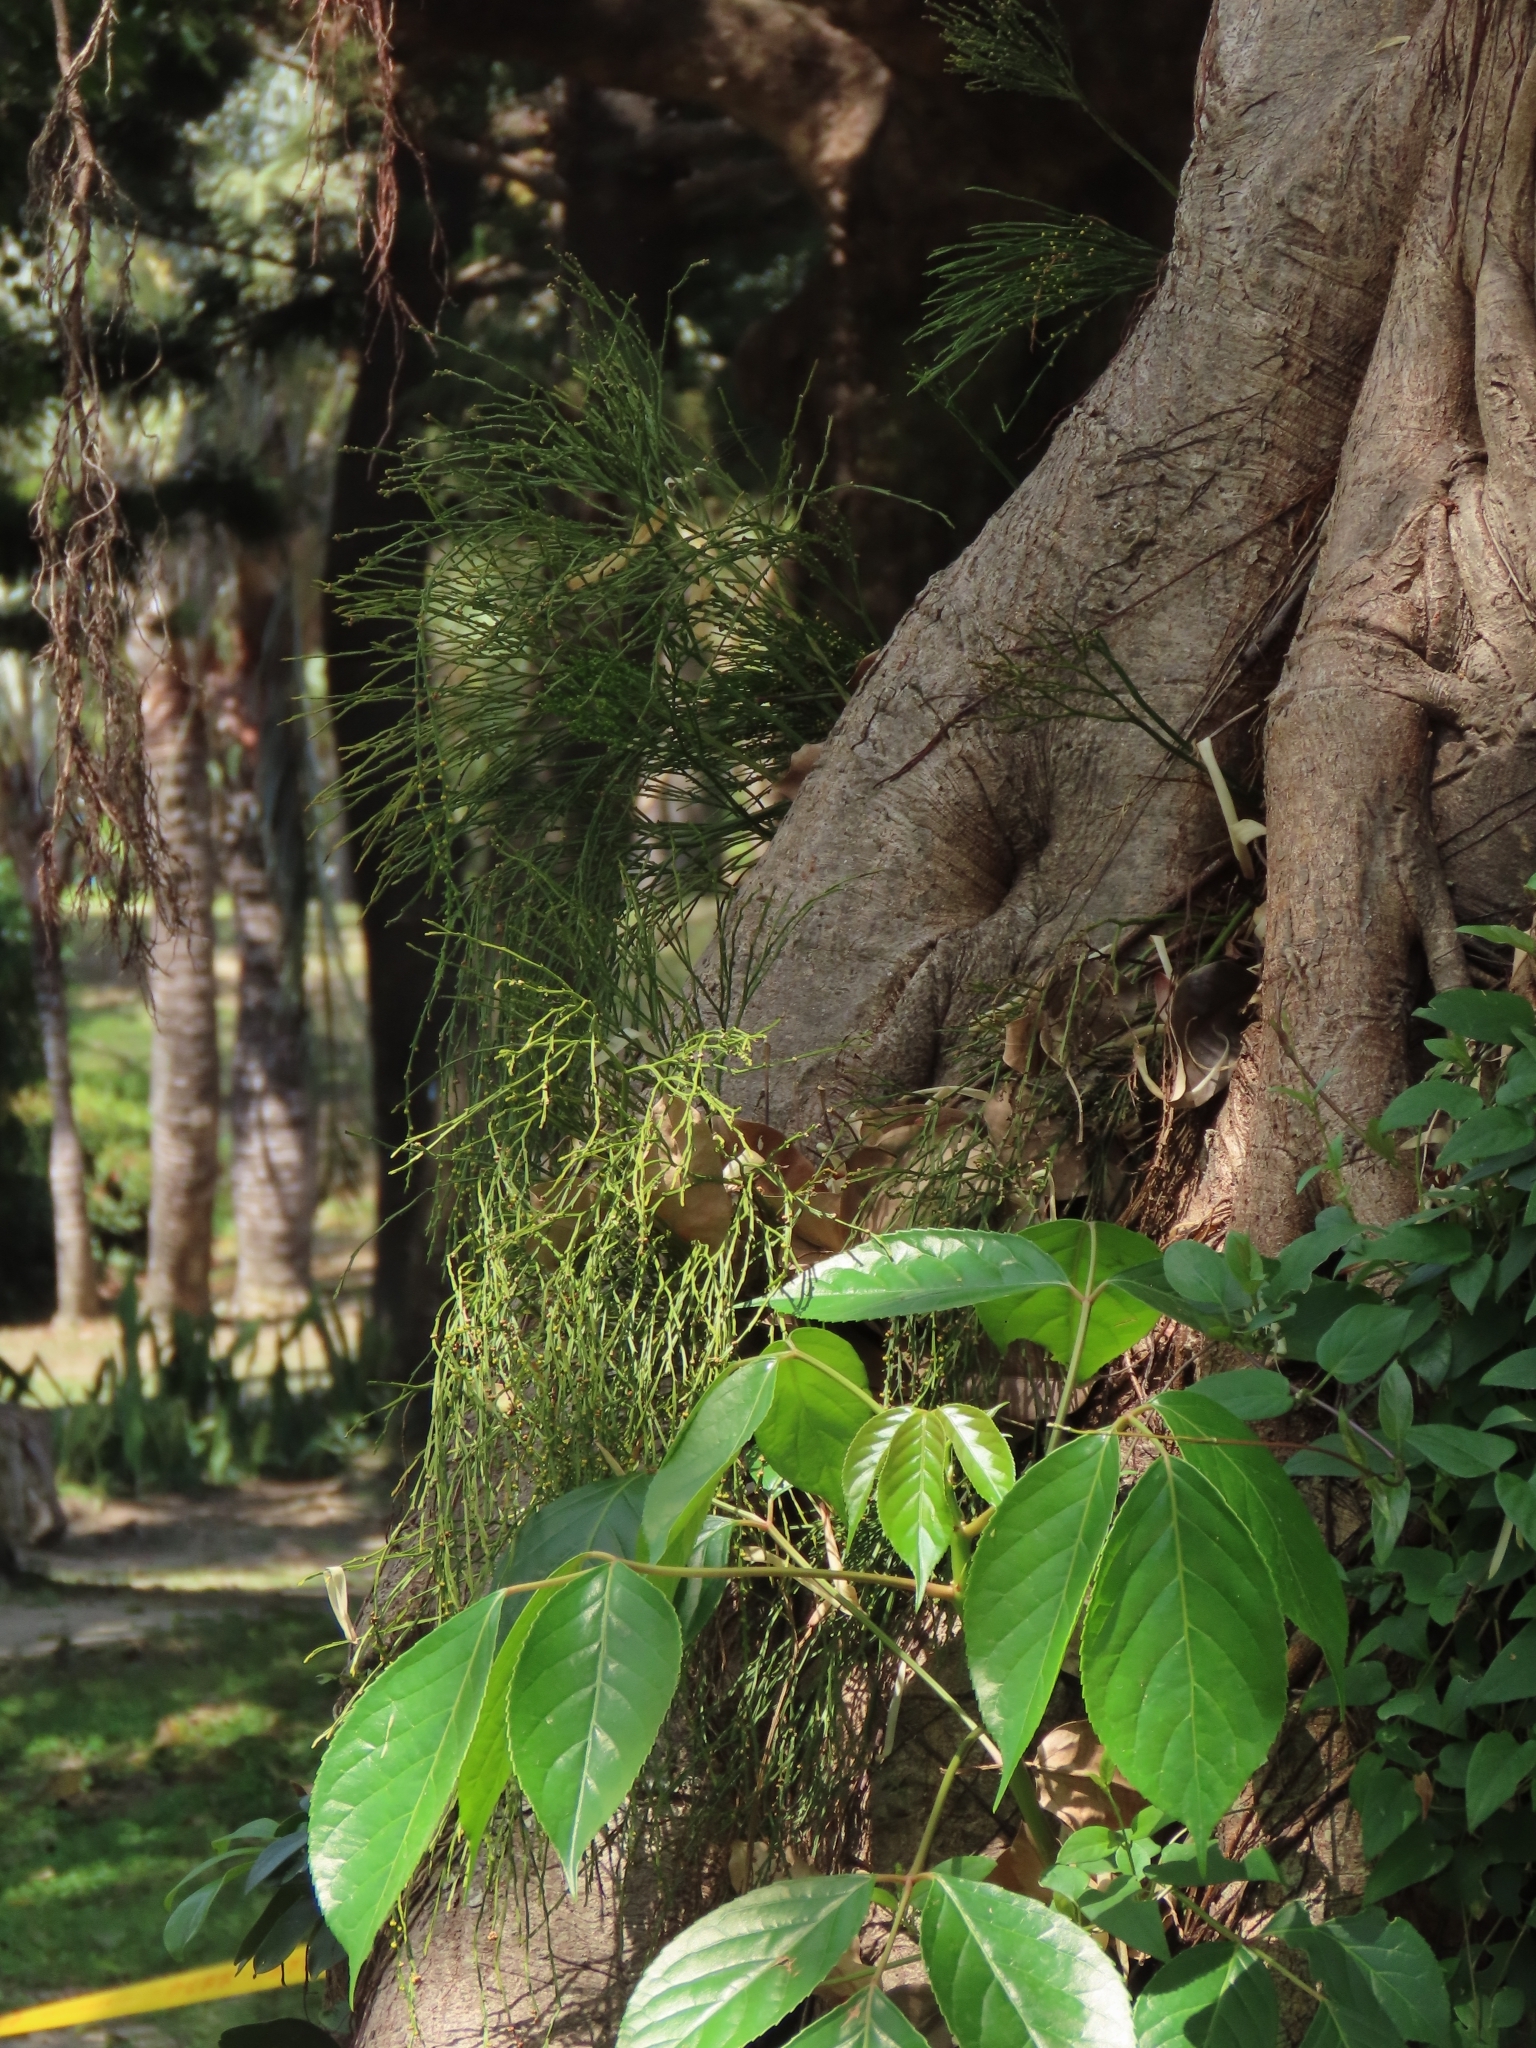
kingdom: Plantae
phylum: Tracheophyta
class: Polypodiopsida
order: Psilotales
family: Psilotaceae
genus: Psilotum
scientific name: Psilotum nudum
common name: Skeleton fork fern
